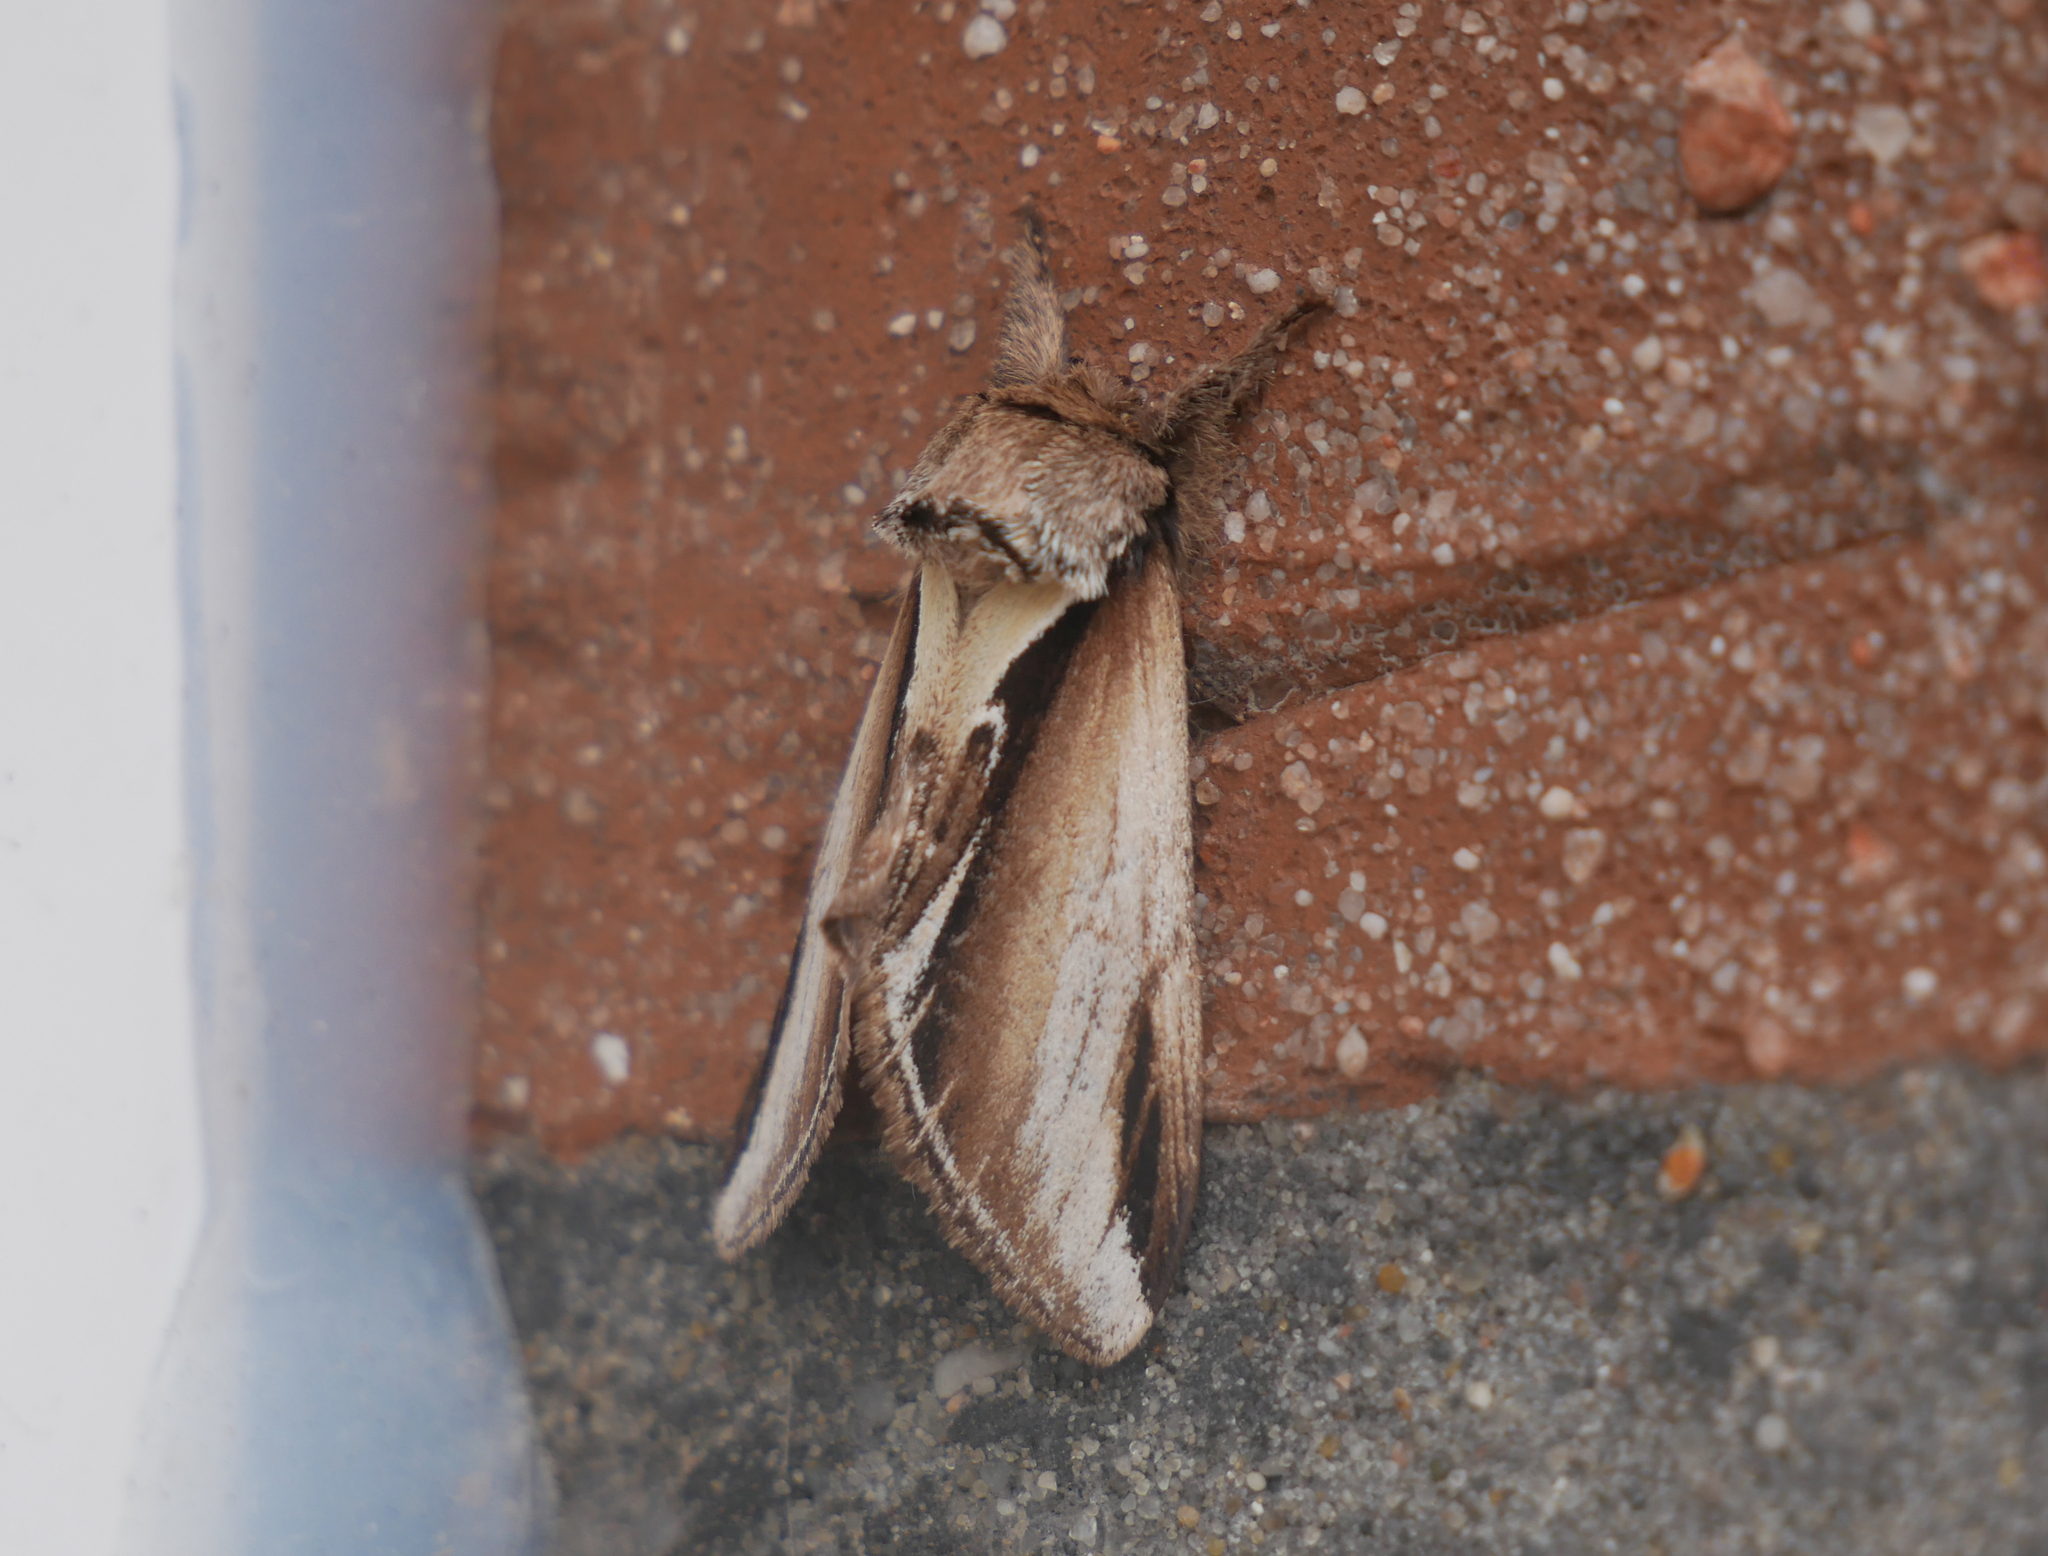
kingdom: Animalia
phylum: Arthropoda
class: Insecta
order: Lepidoptera
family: Notodontidae
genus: Pheosia
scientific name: Pheosia gnoma
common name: Lesser swallow prominent
